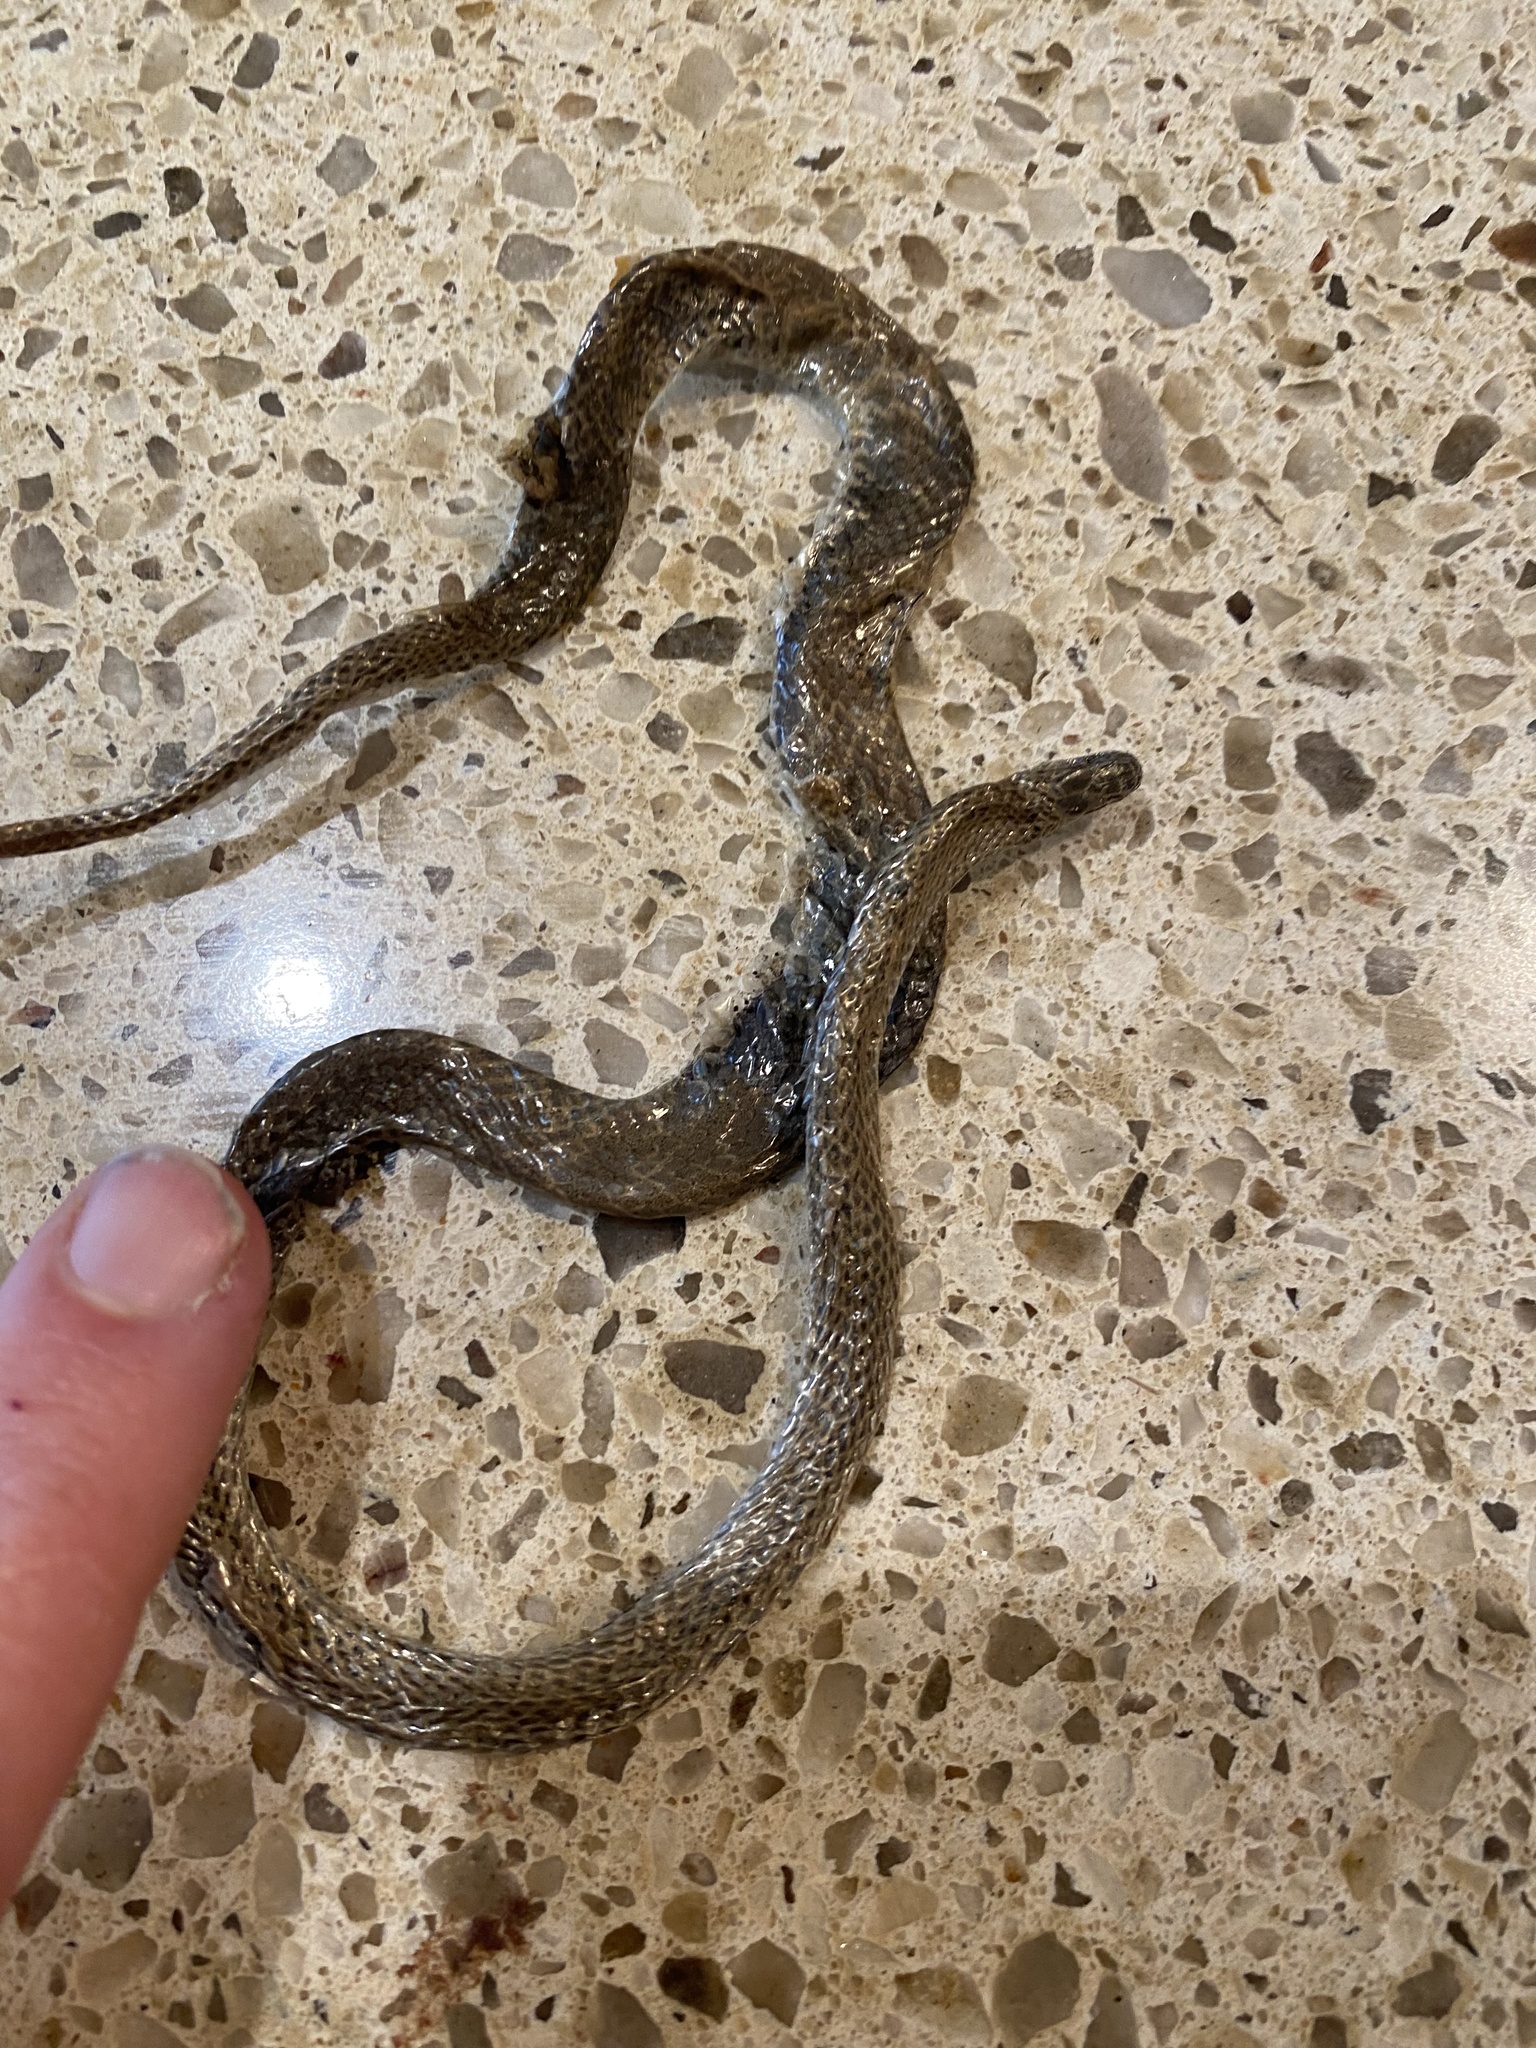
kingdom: Animalia
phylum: Chordata
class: Squamata
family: Colubridae
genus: Contia
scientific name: Contia tenuis
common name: Sharptail snake
